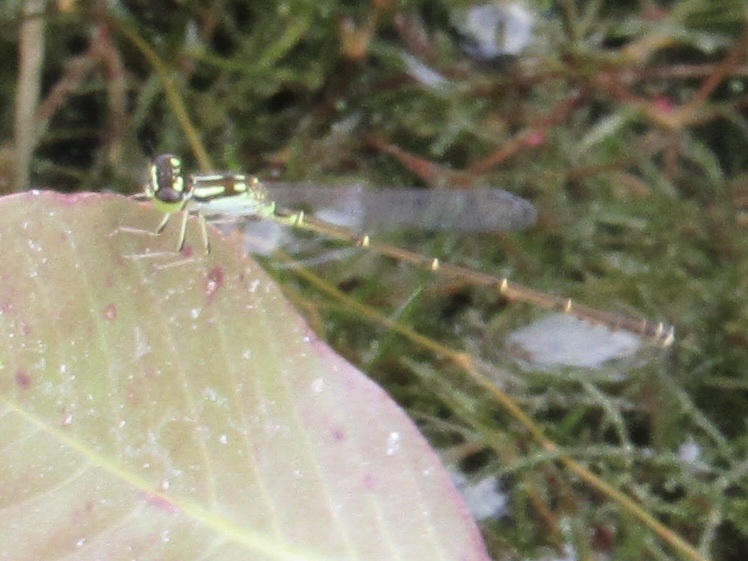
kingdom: Animalia
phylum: Arthropoda
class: Insecta
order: Odonata
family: Coenagrionidae
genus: Ischnura
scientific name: Ischnura posita
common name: Fragile forktail
